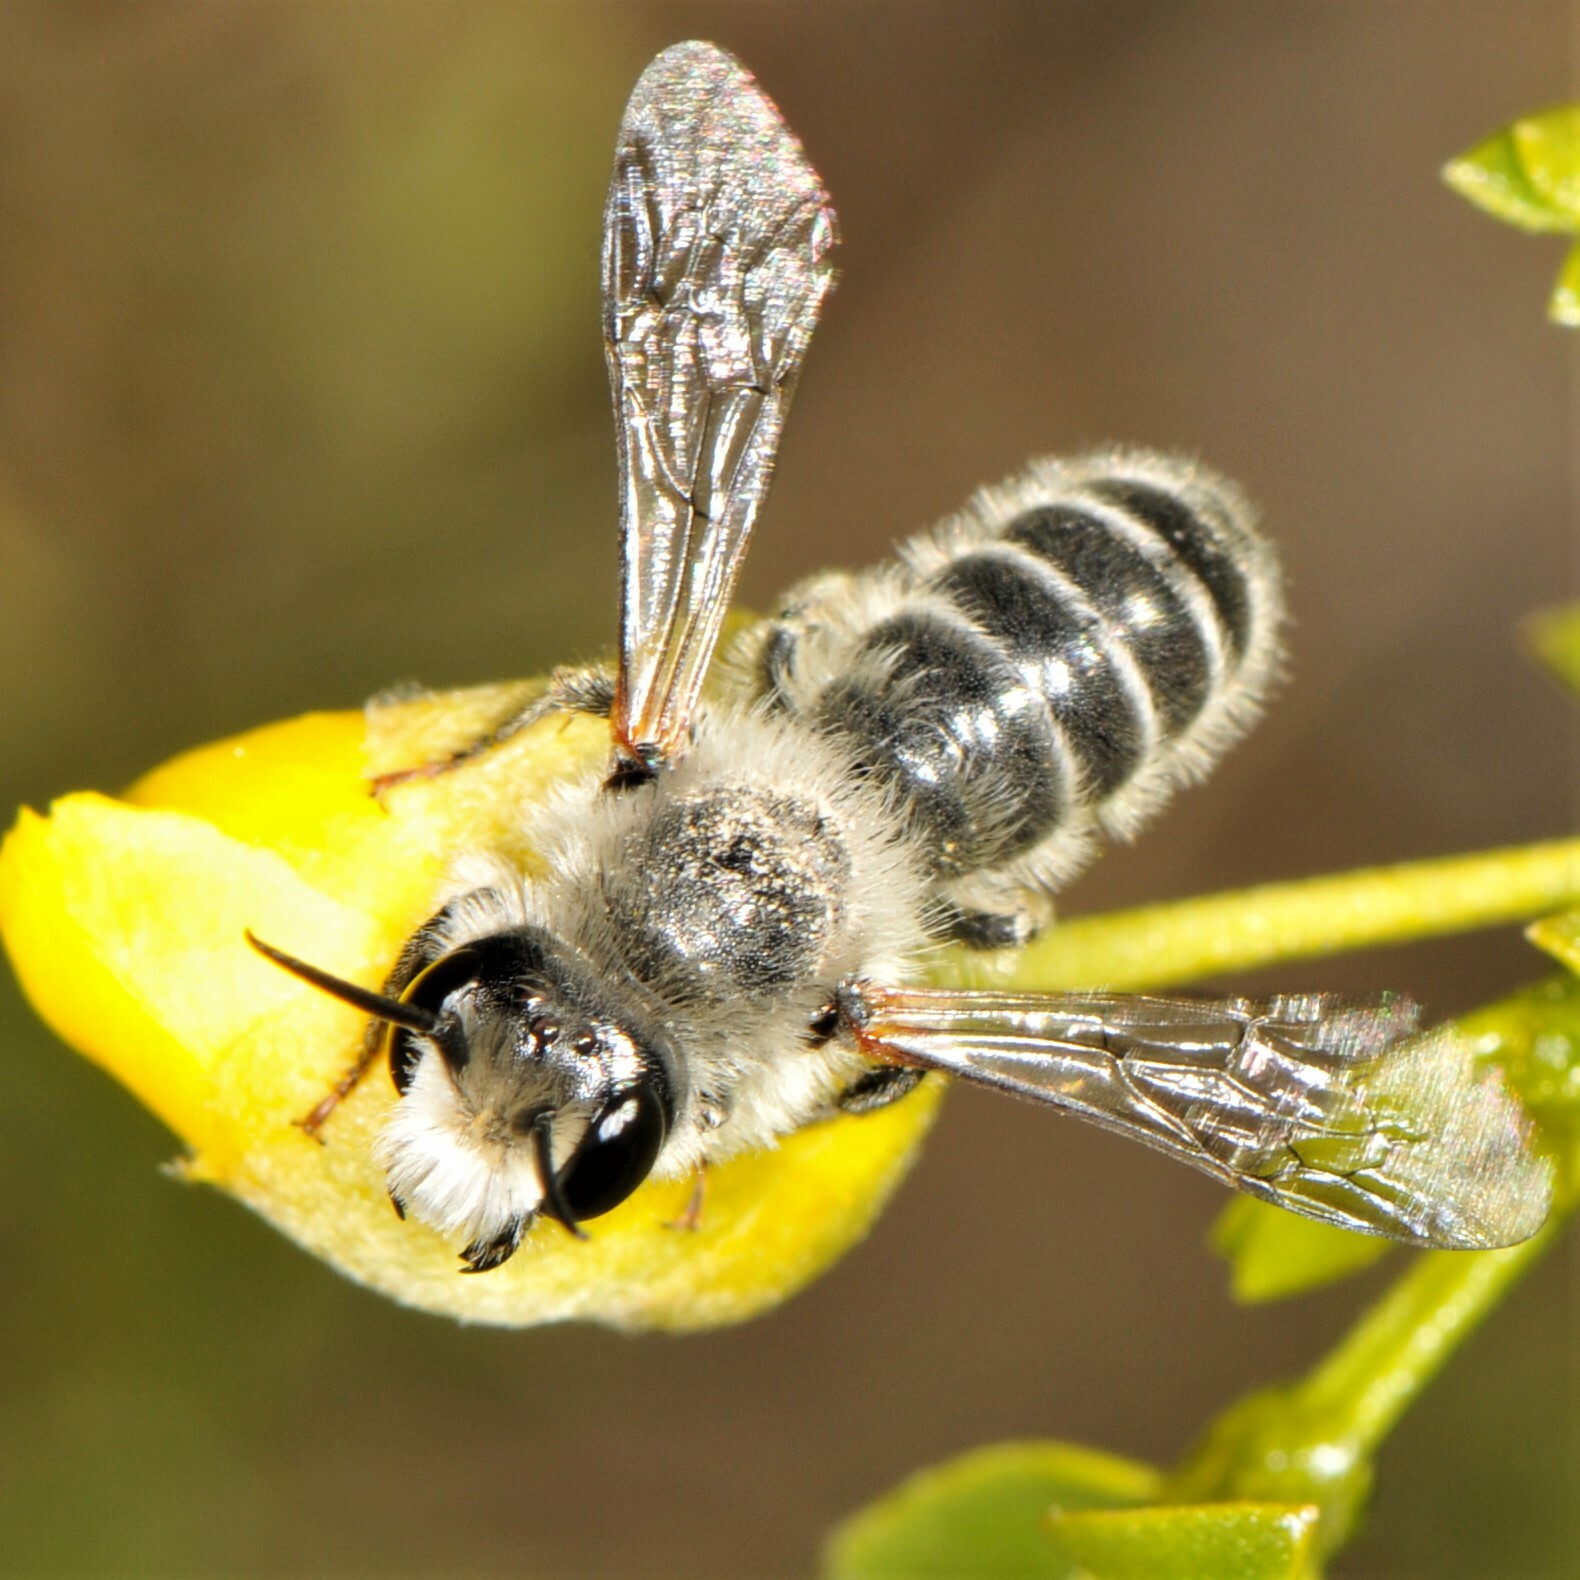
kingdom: Animalia
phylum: Arthropoda
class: Insecta
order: Hymenoptera
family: Megachilidae
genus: Hoplitis
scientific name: Hoplitis biscutellae
